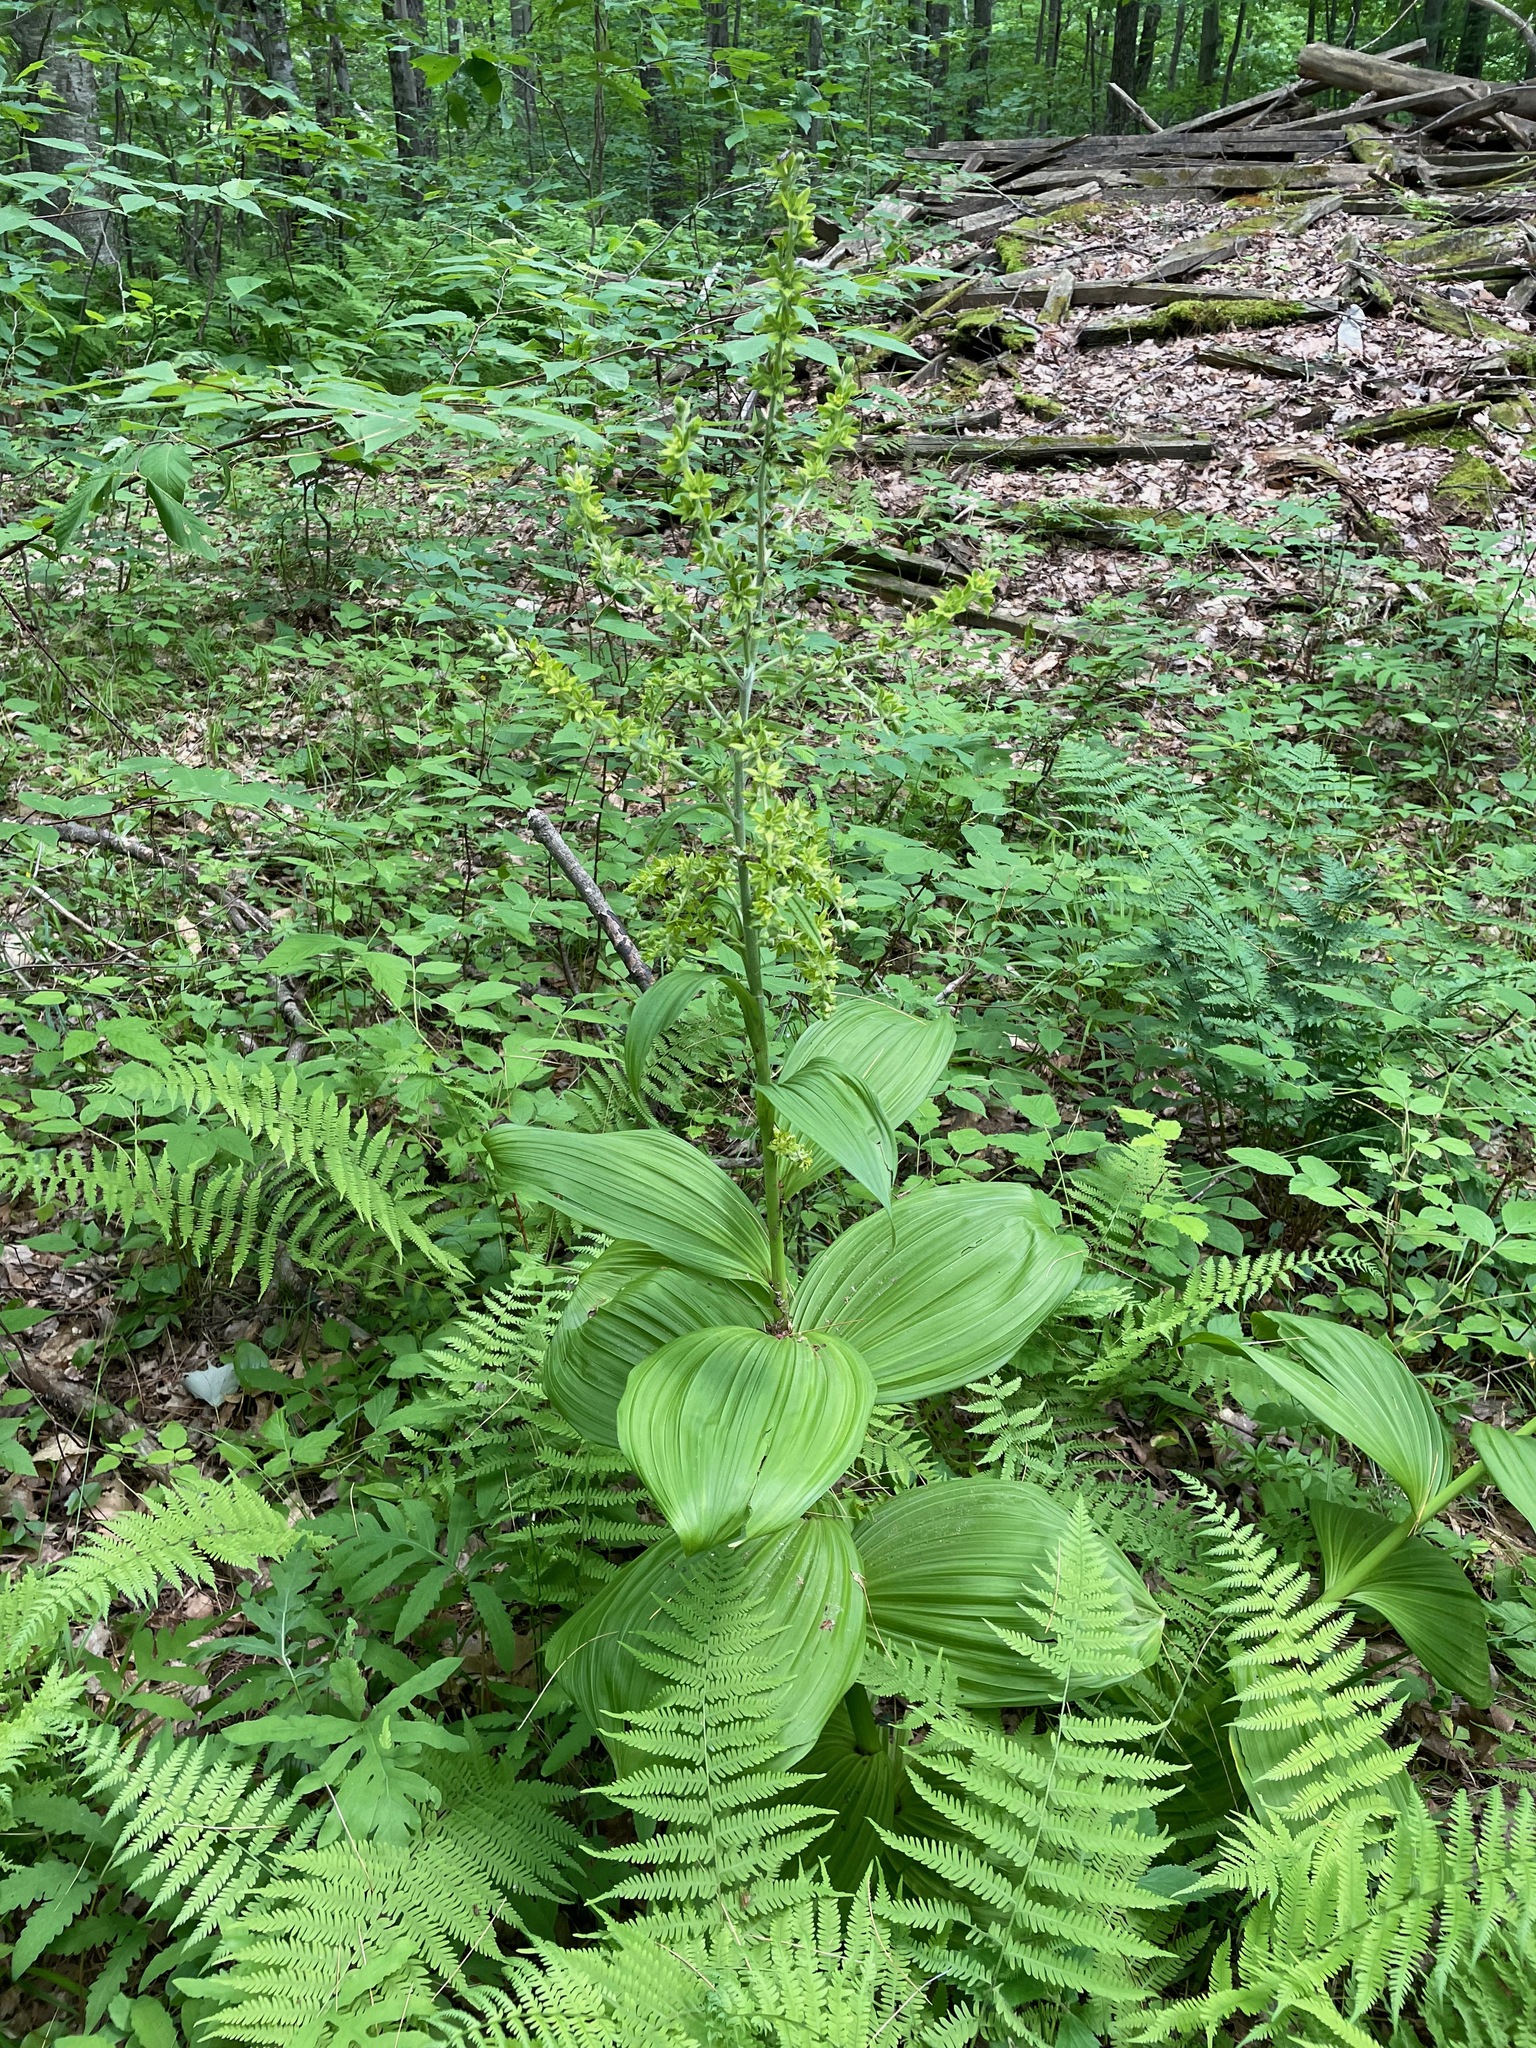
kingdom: Plantae
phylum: Tracheophyta
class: Liliopsida
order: Liliales
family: Melanthiaceae
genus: Veratrum
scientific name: Veratrum viride
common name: American false hellebore
